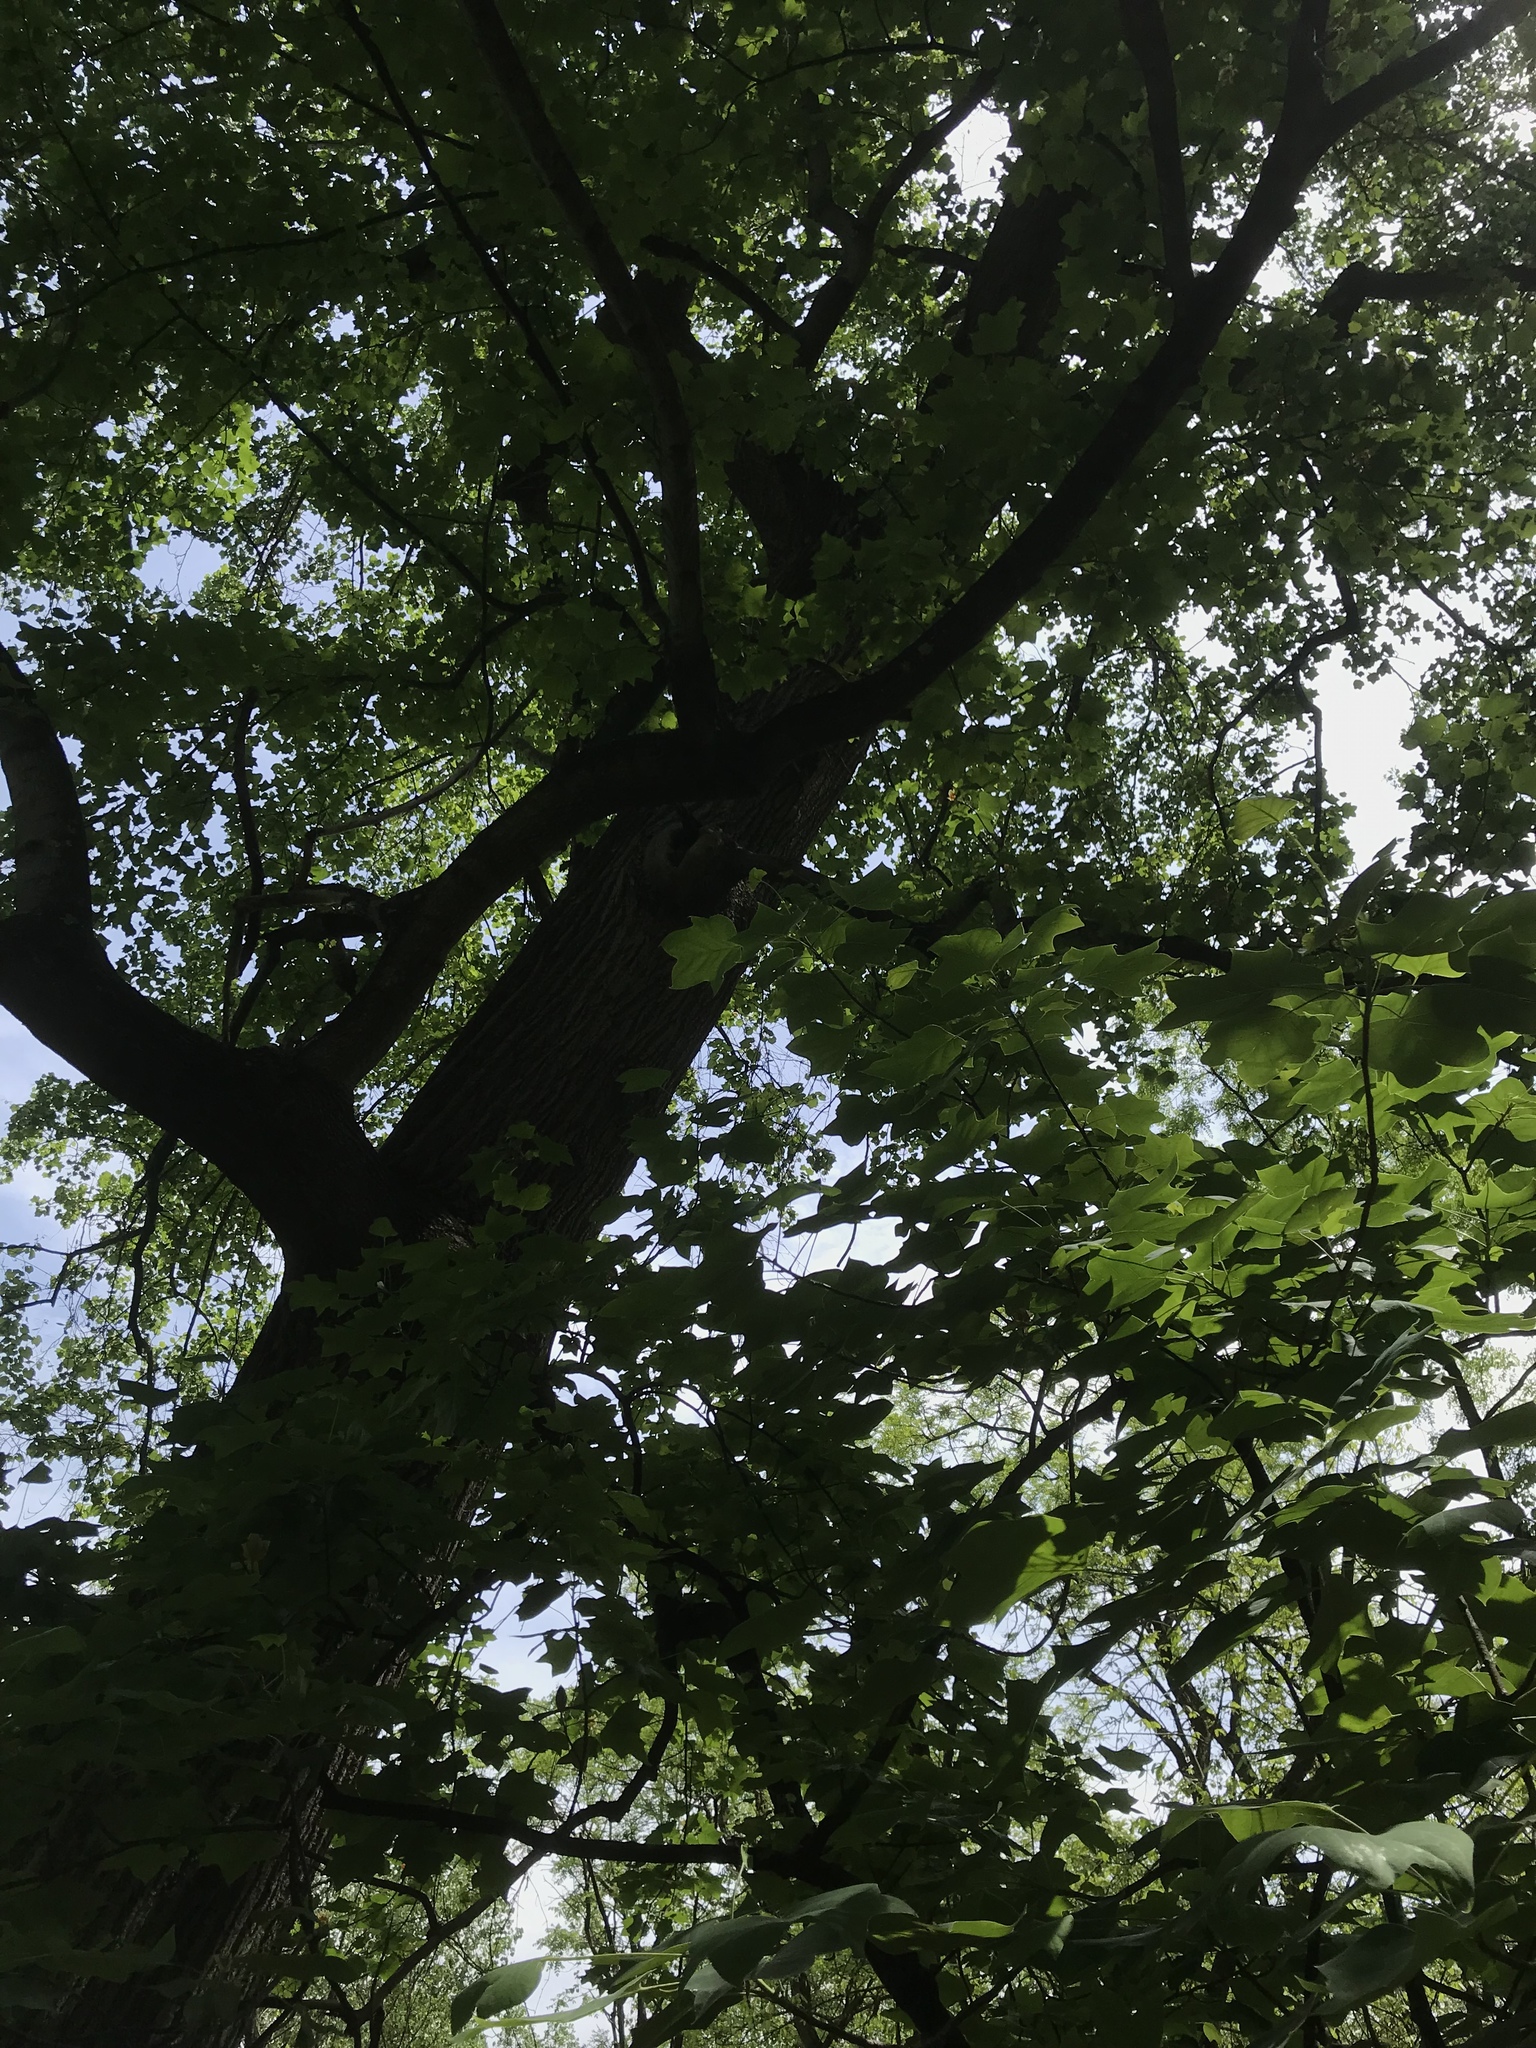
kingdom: Plantae
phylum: Tracheophyta
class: Magnoliopsida
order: Magnoliales
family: Magnoliaceae
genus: Liriodendron
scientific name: Liriodendron tulipifera
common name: Tulip tree
